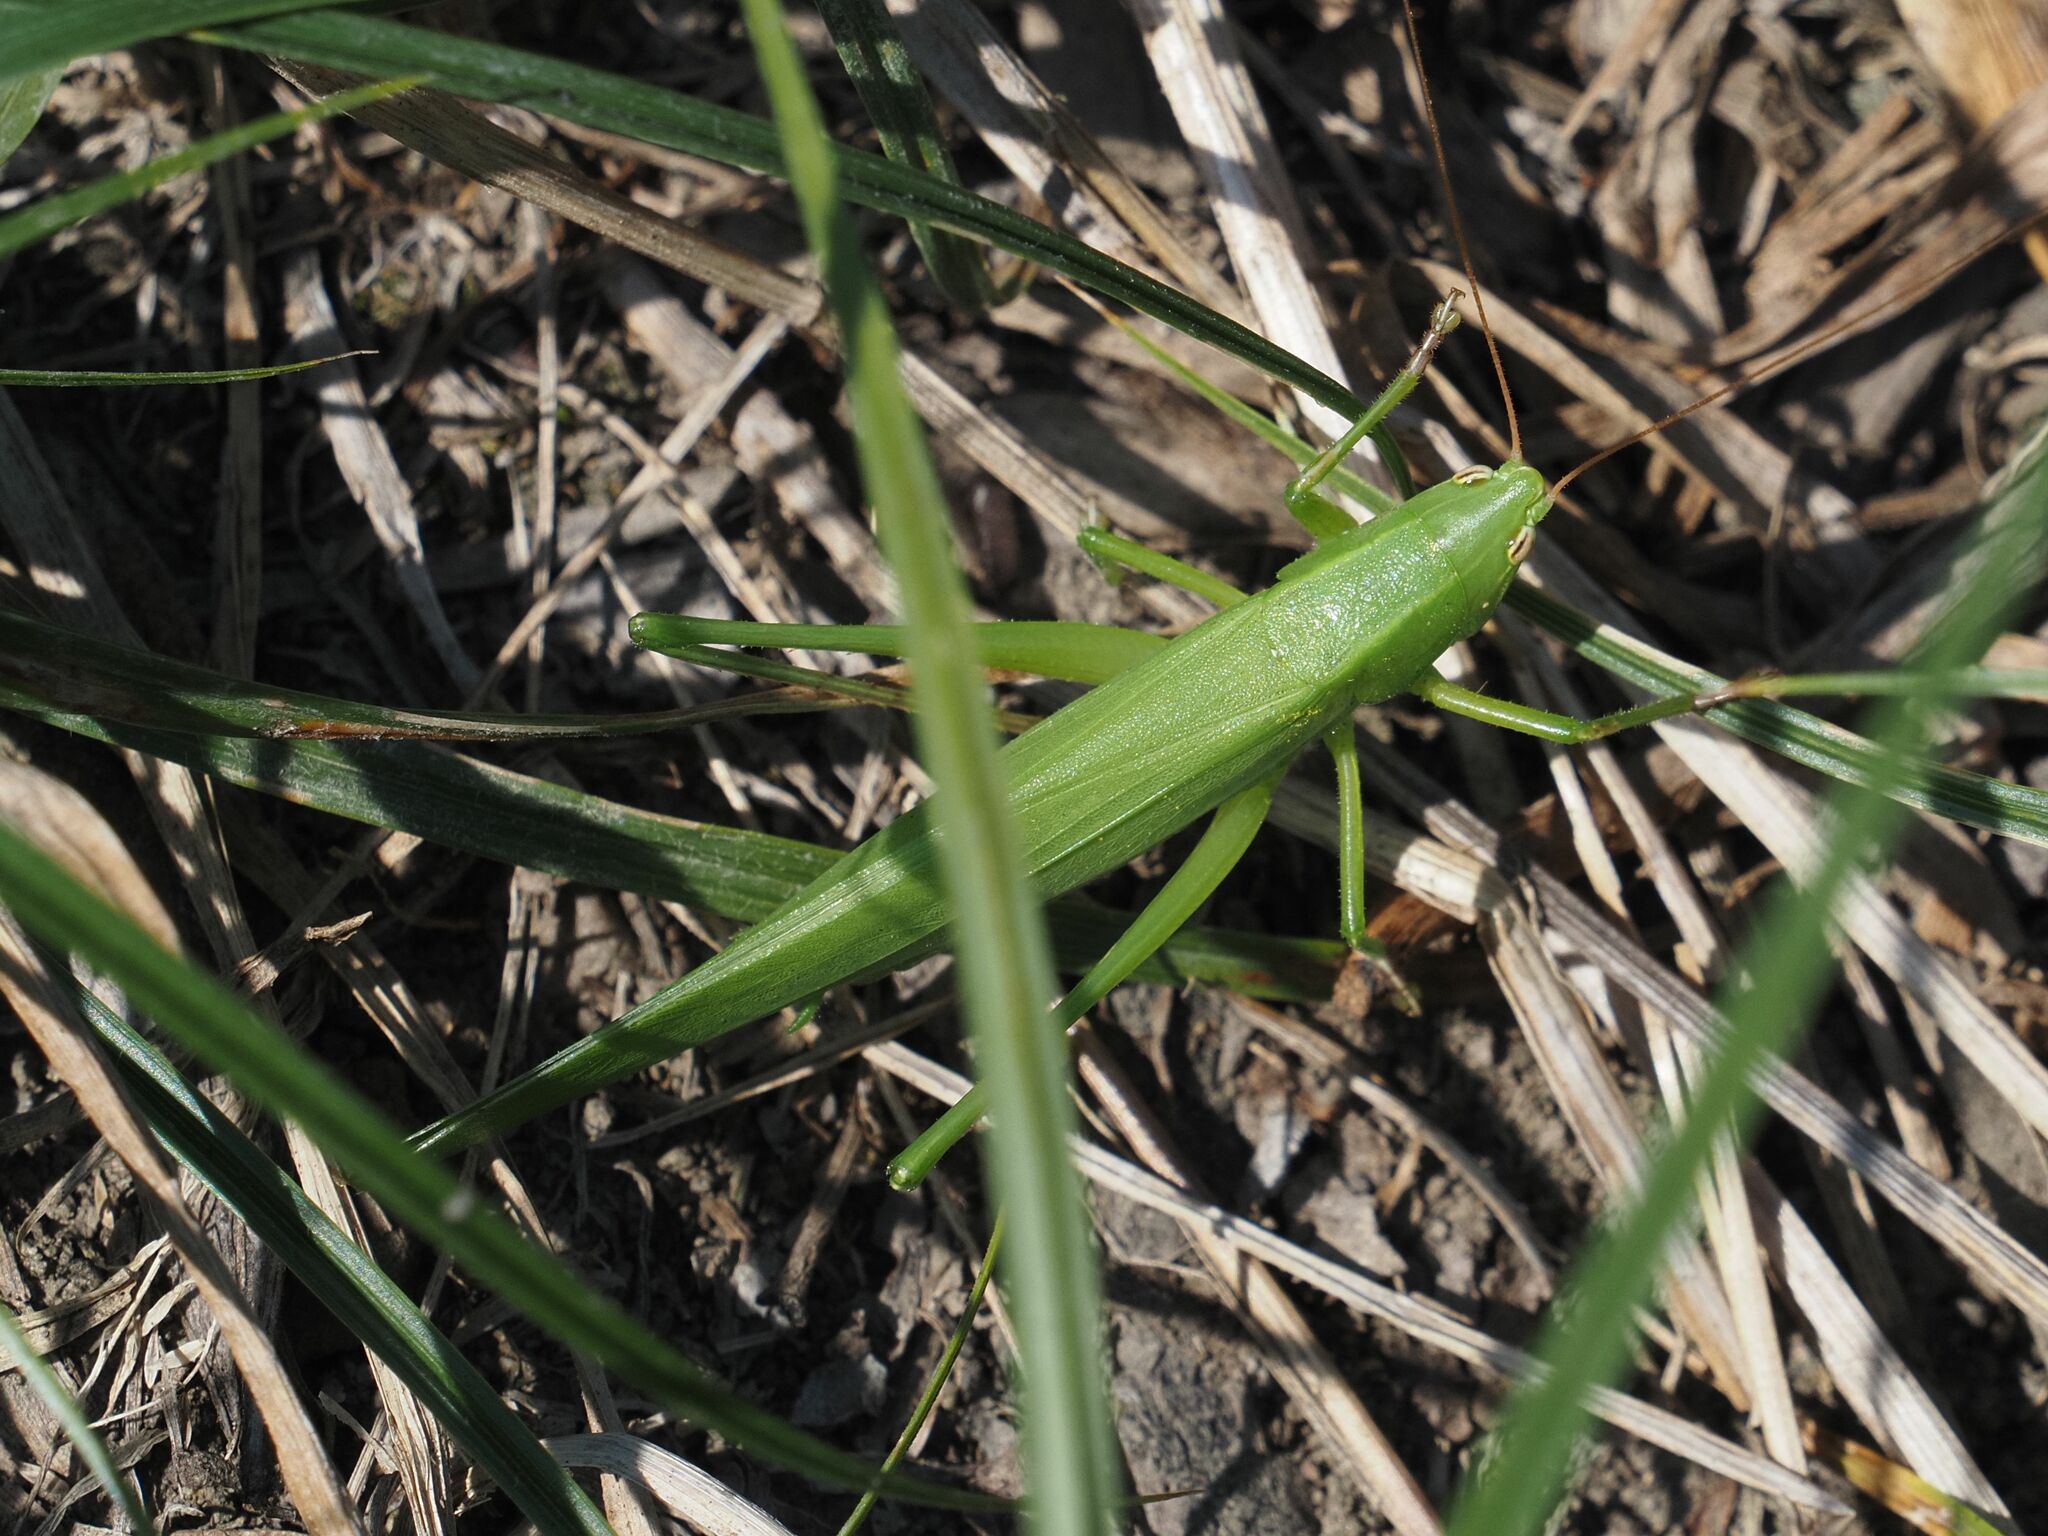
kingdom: Animalia
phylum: Arthropoda
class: Insecta
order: Orthoptera
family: Tettigoniidae
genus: Ruspolia
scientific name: Ruspolia nitidula
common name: Large conehead
